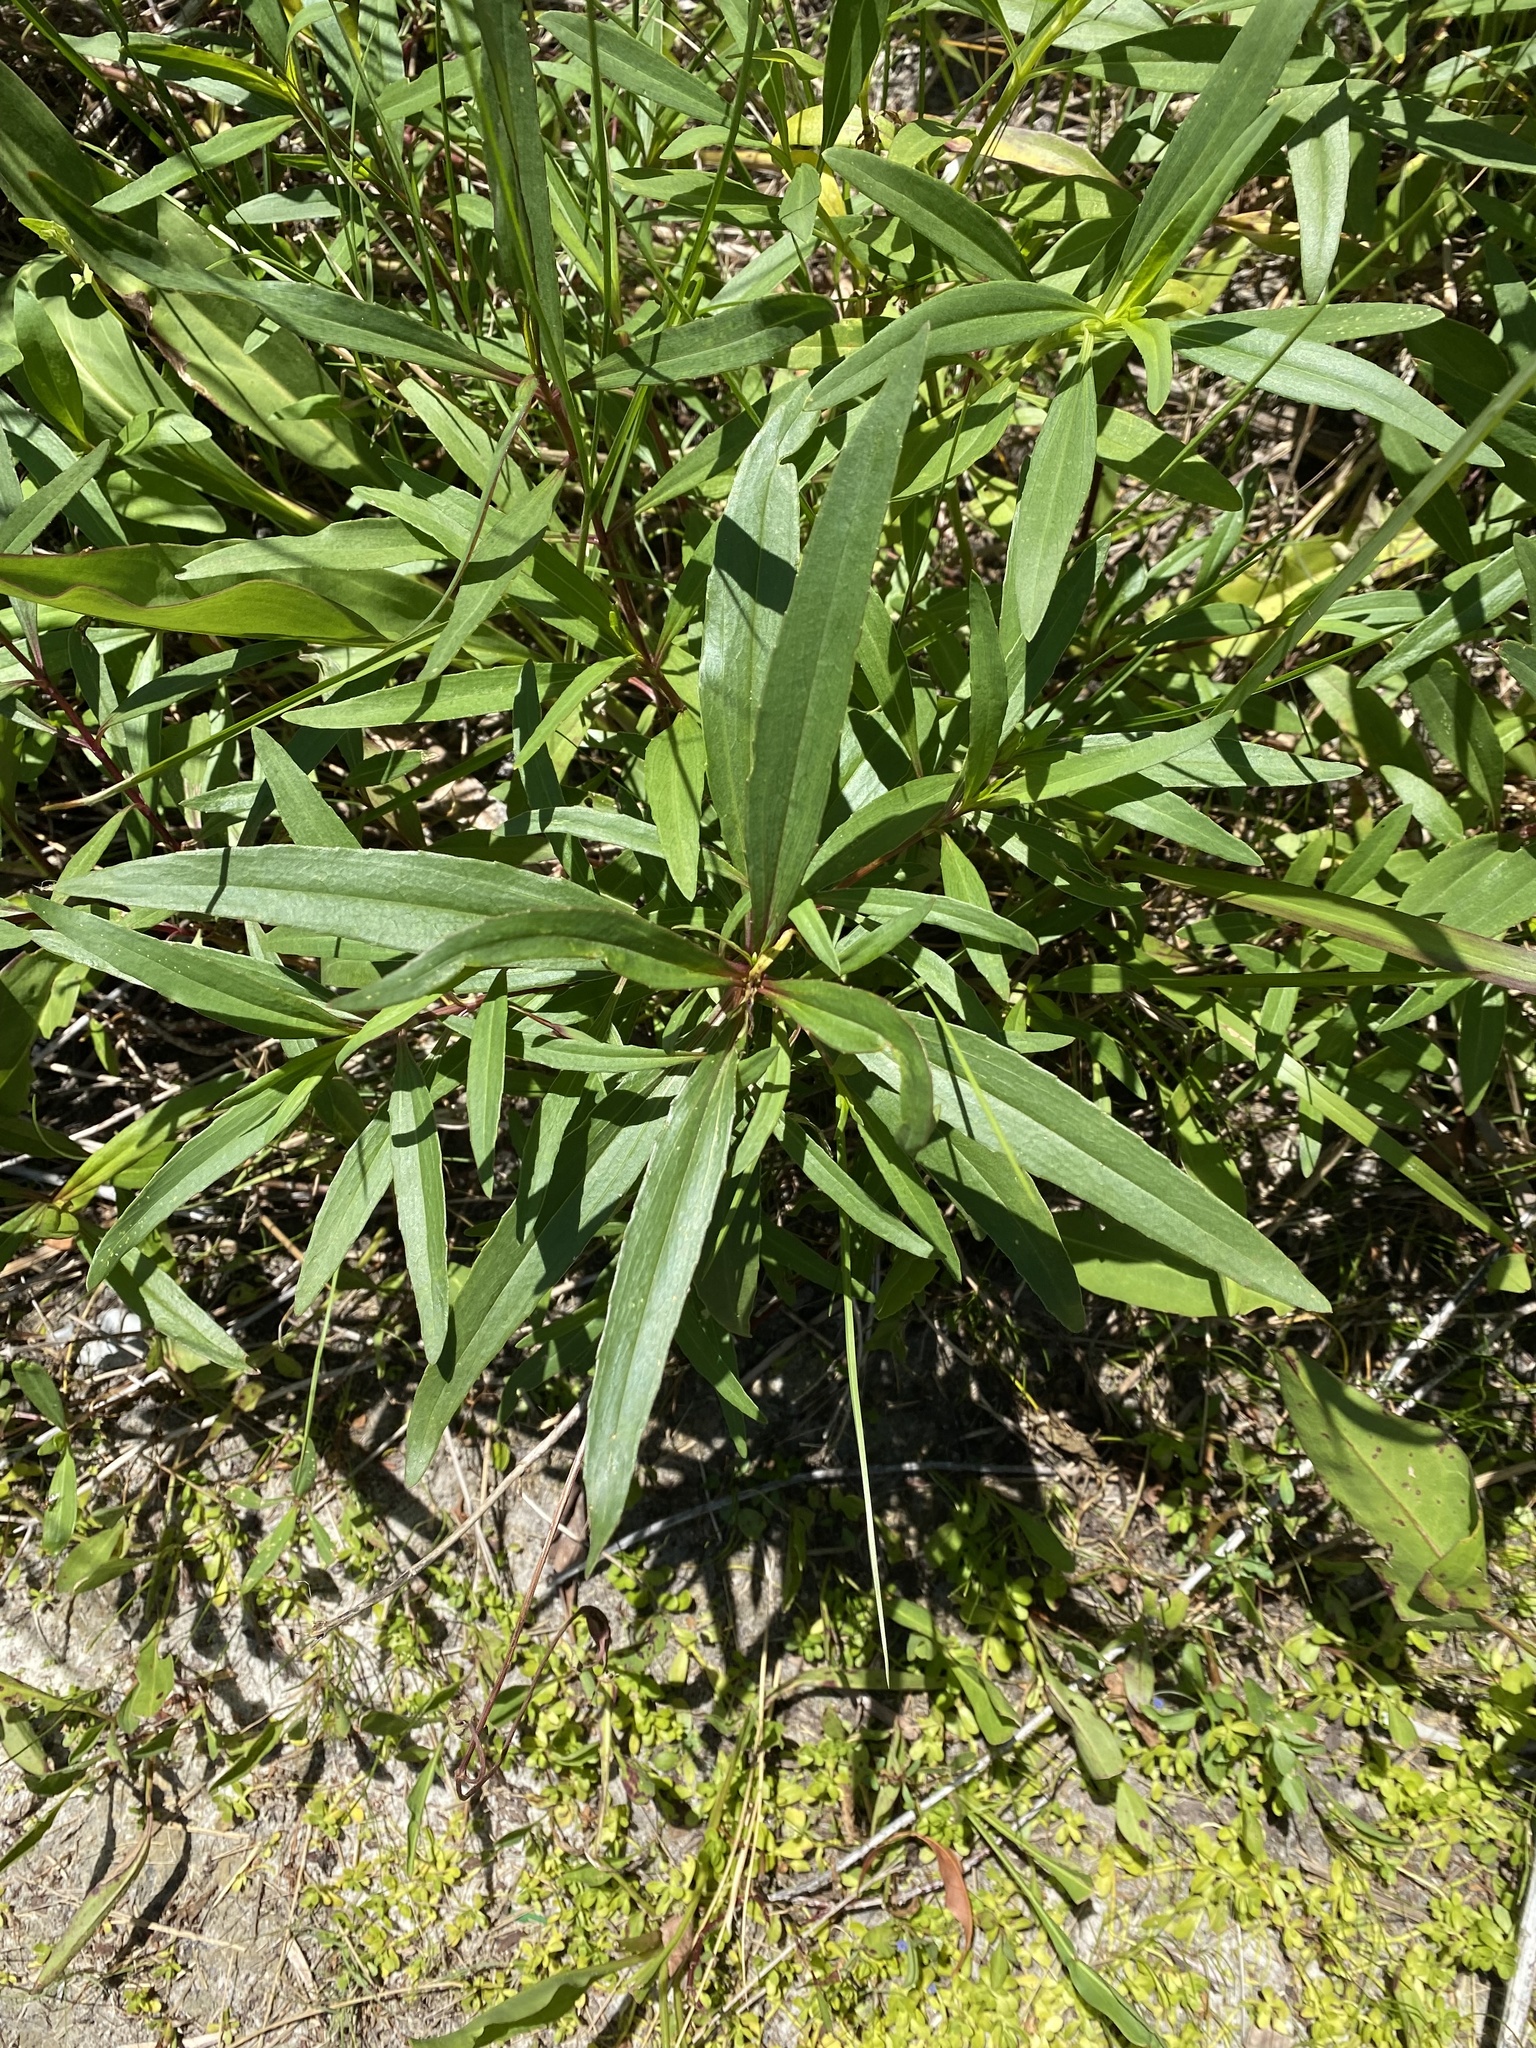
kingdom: Plantae
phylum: Tracheophyta
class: Magnoliopsida
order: Gentianales
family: Apocynaceae
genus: Asclepias
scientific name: Asclepias curassavica
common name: Bloodflower
